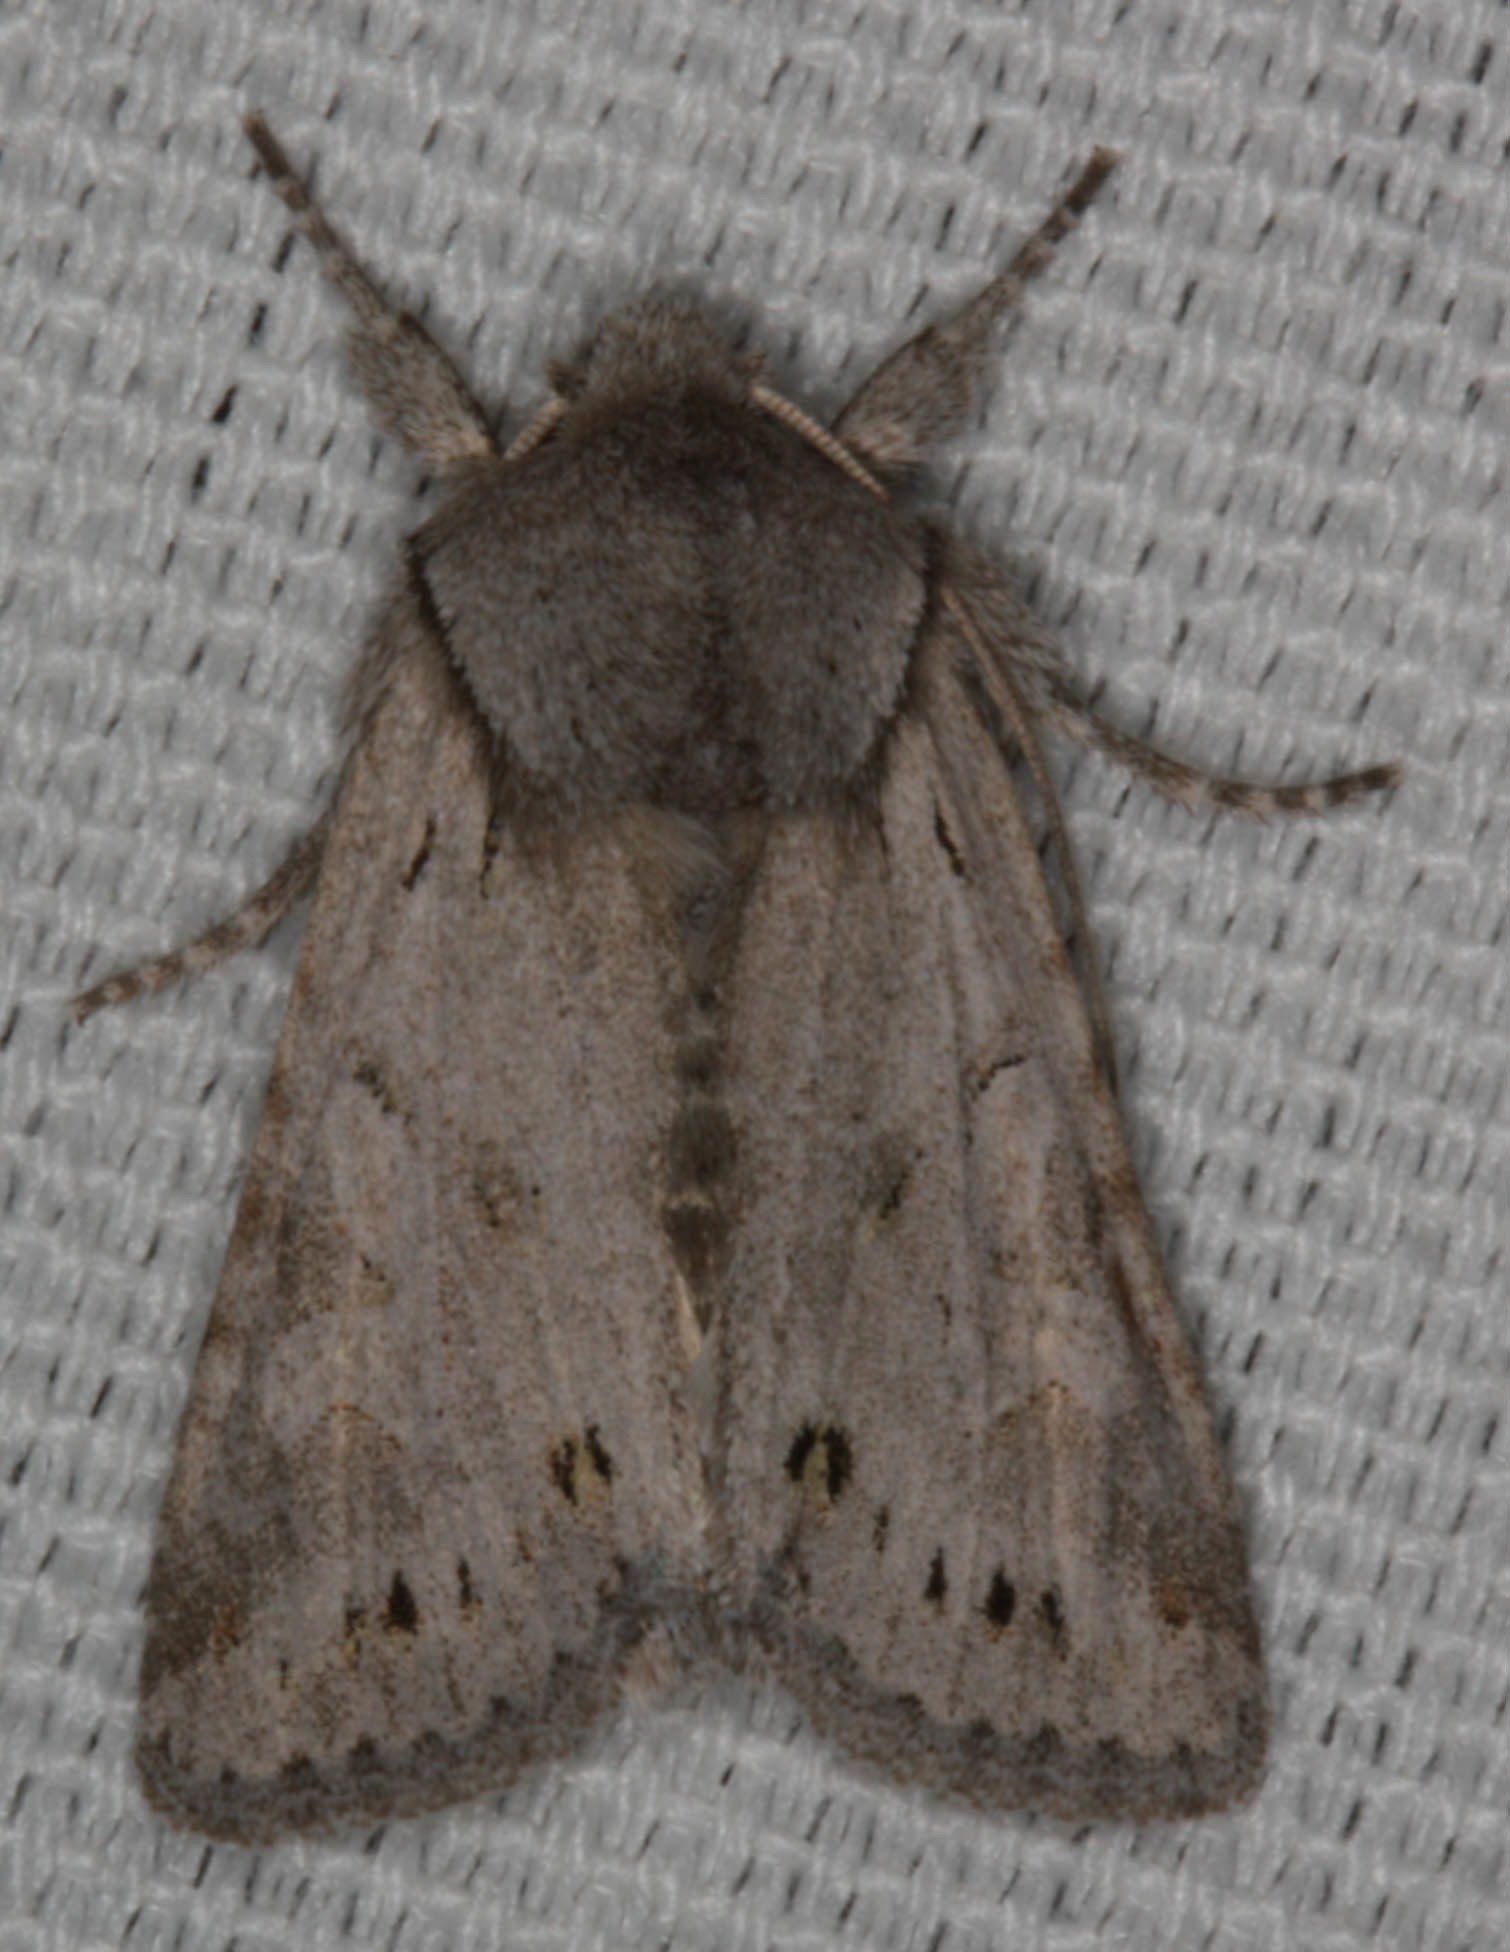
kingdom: Animalia
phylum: Arthropoda
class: Insecta
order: Lepidoptera
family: Noctuidae
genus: Lacinipolia
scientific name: Lacinipolia patalis
